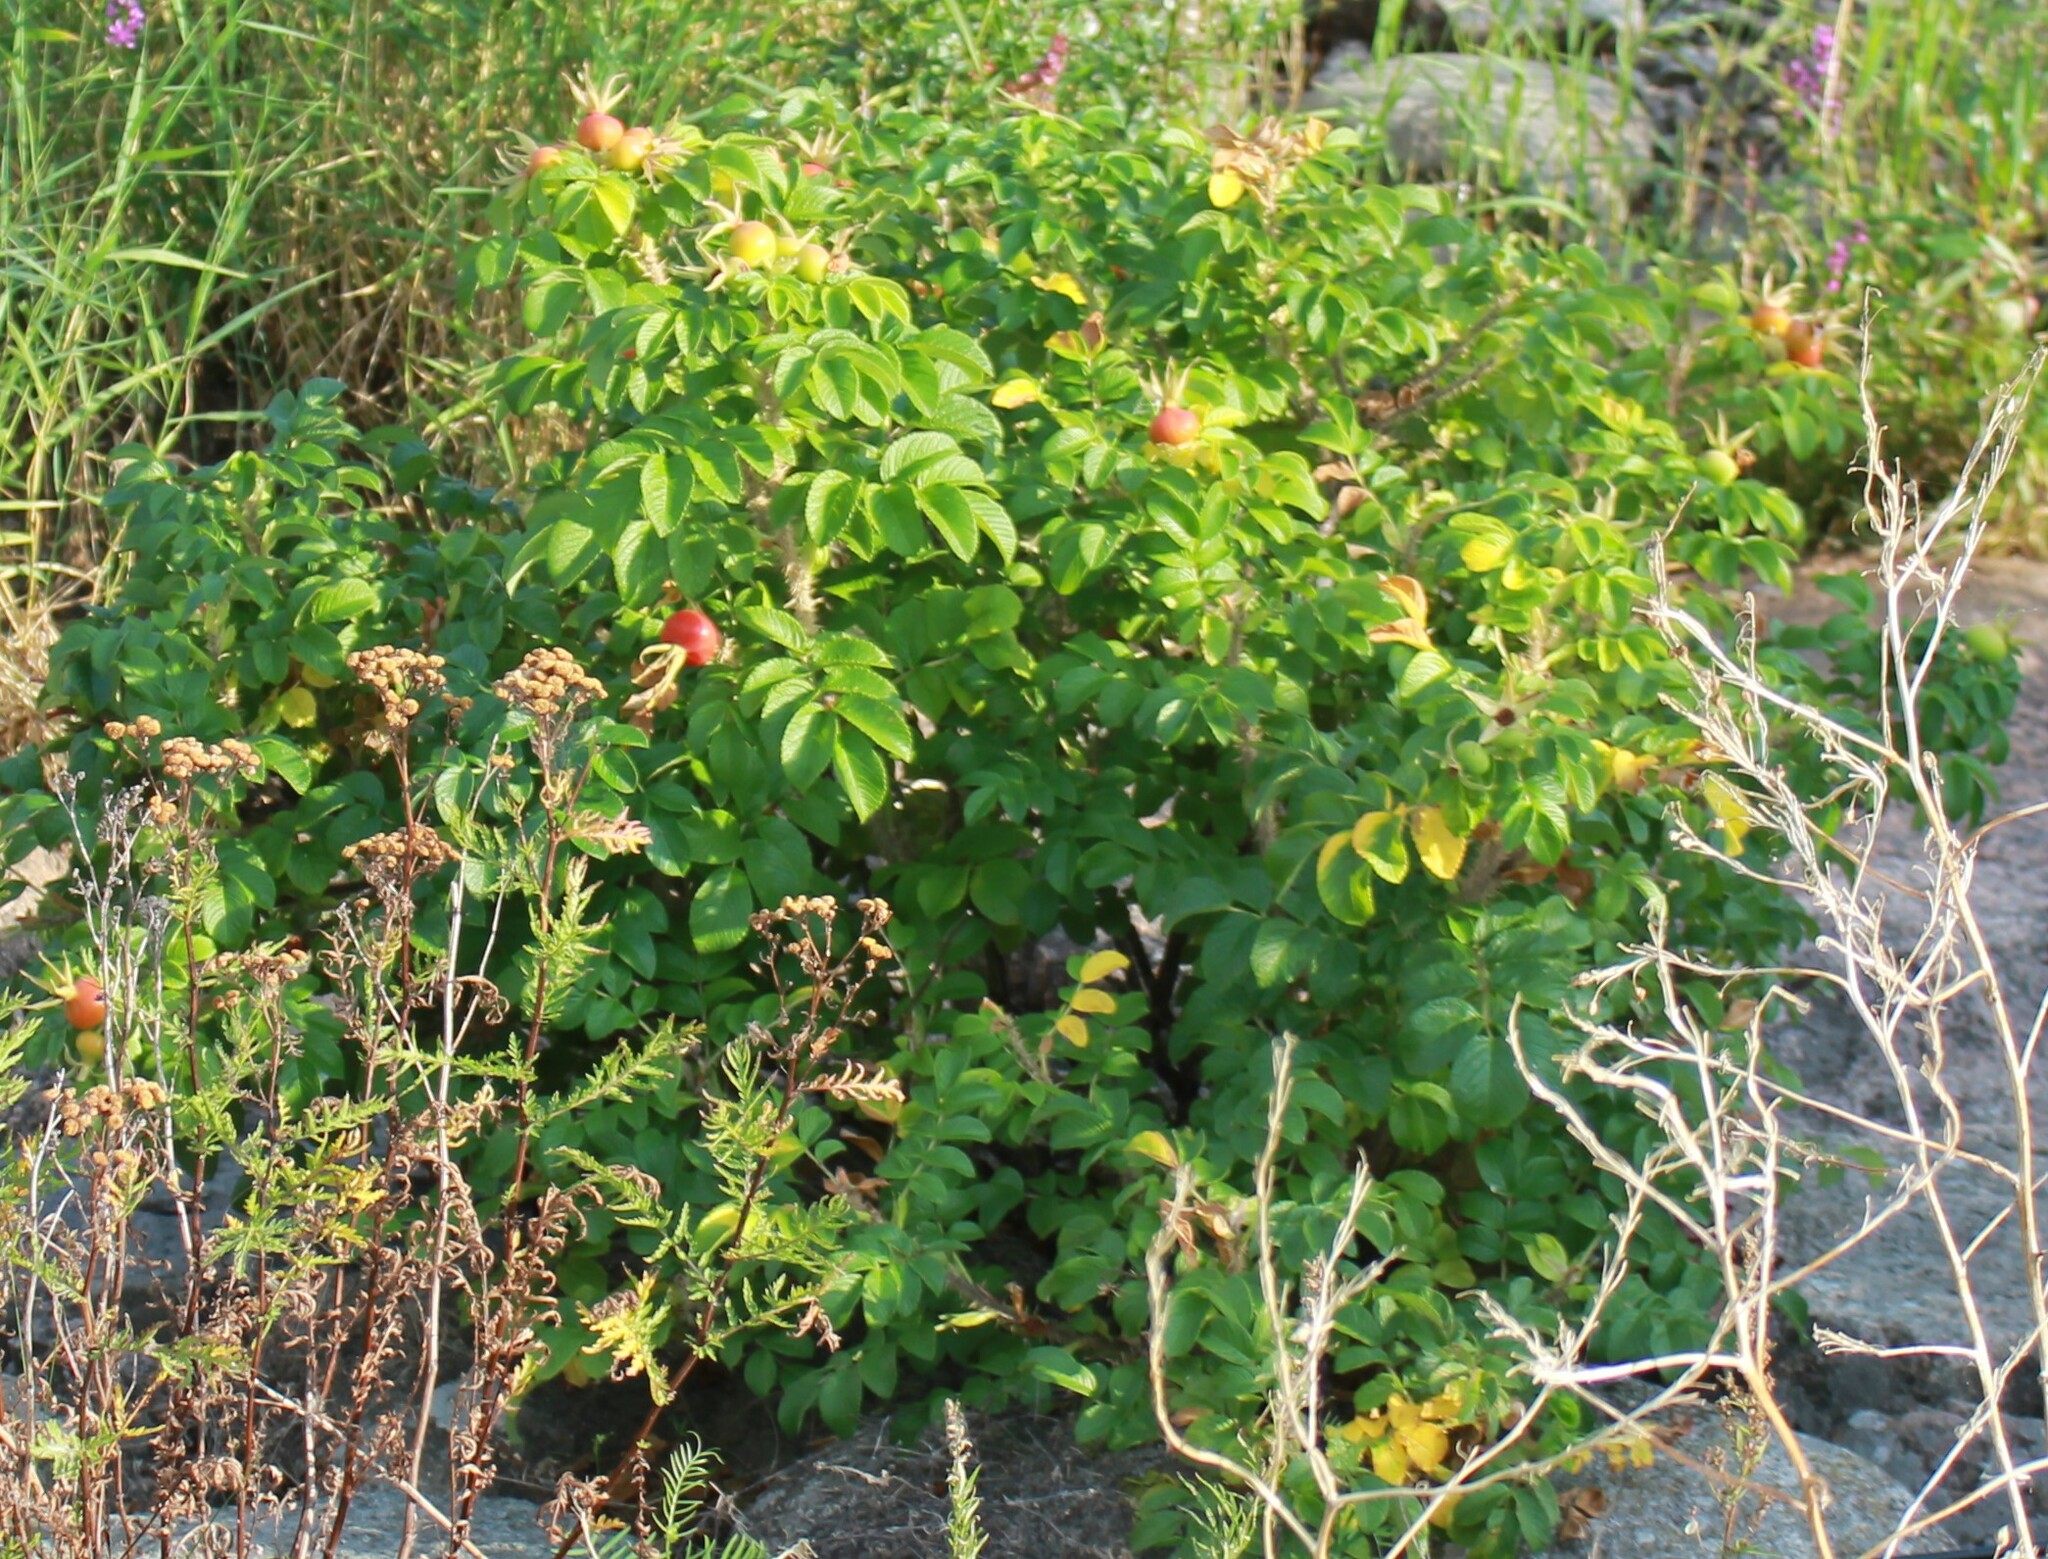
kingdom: Plantae
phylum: Tracheophyta
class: Magnoliopsida
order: Rosales
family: Rosaceae
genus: Rosa
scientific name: Rosa rugosa
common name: Japanese rose
